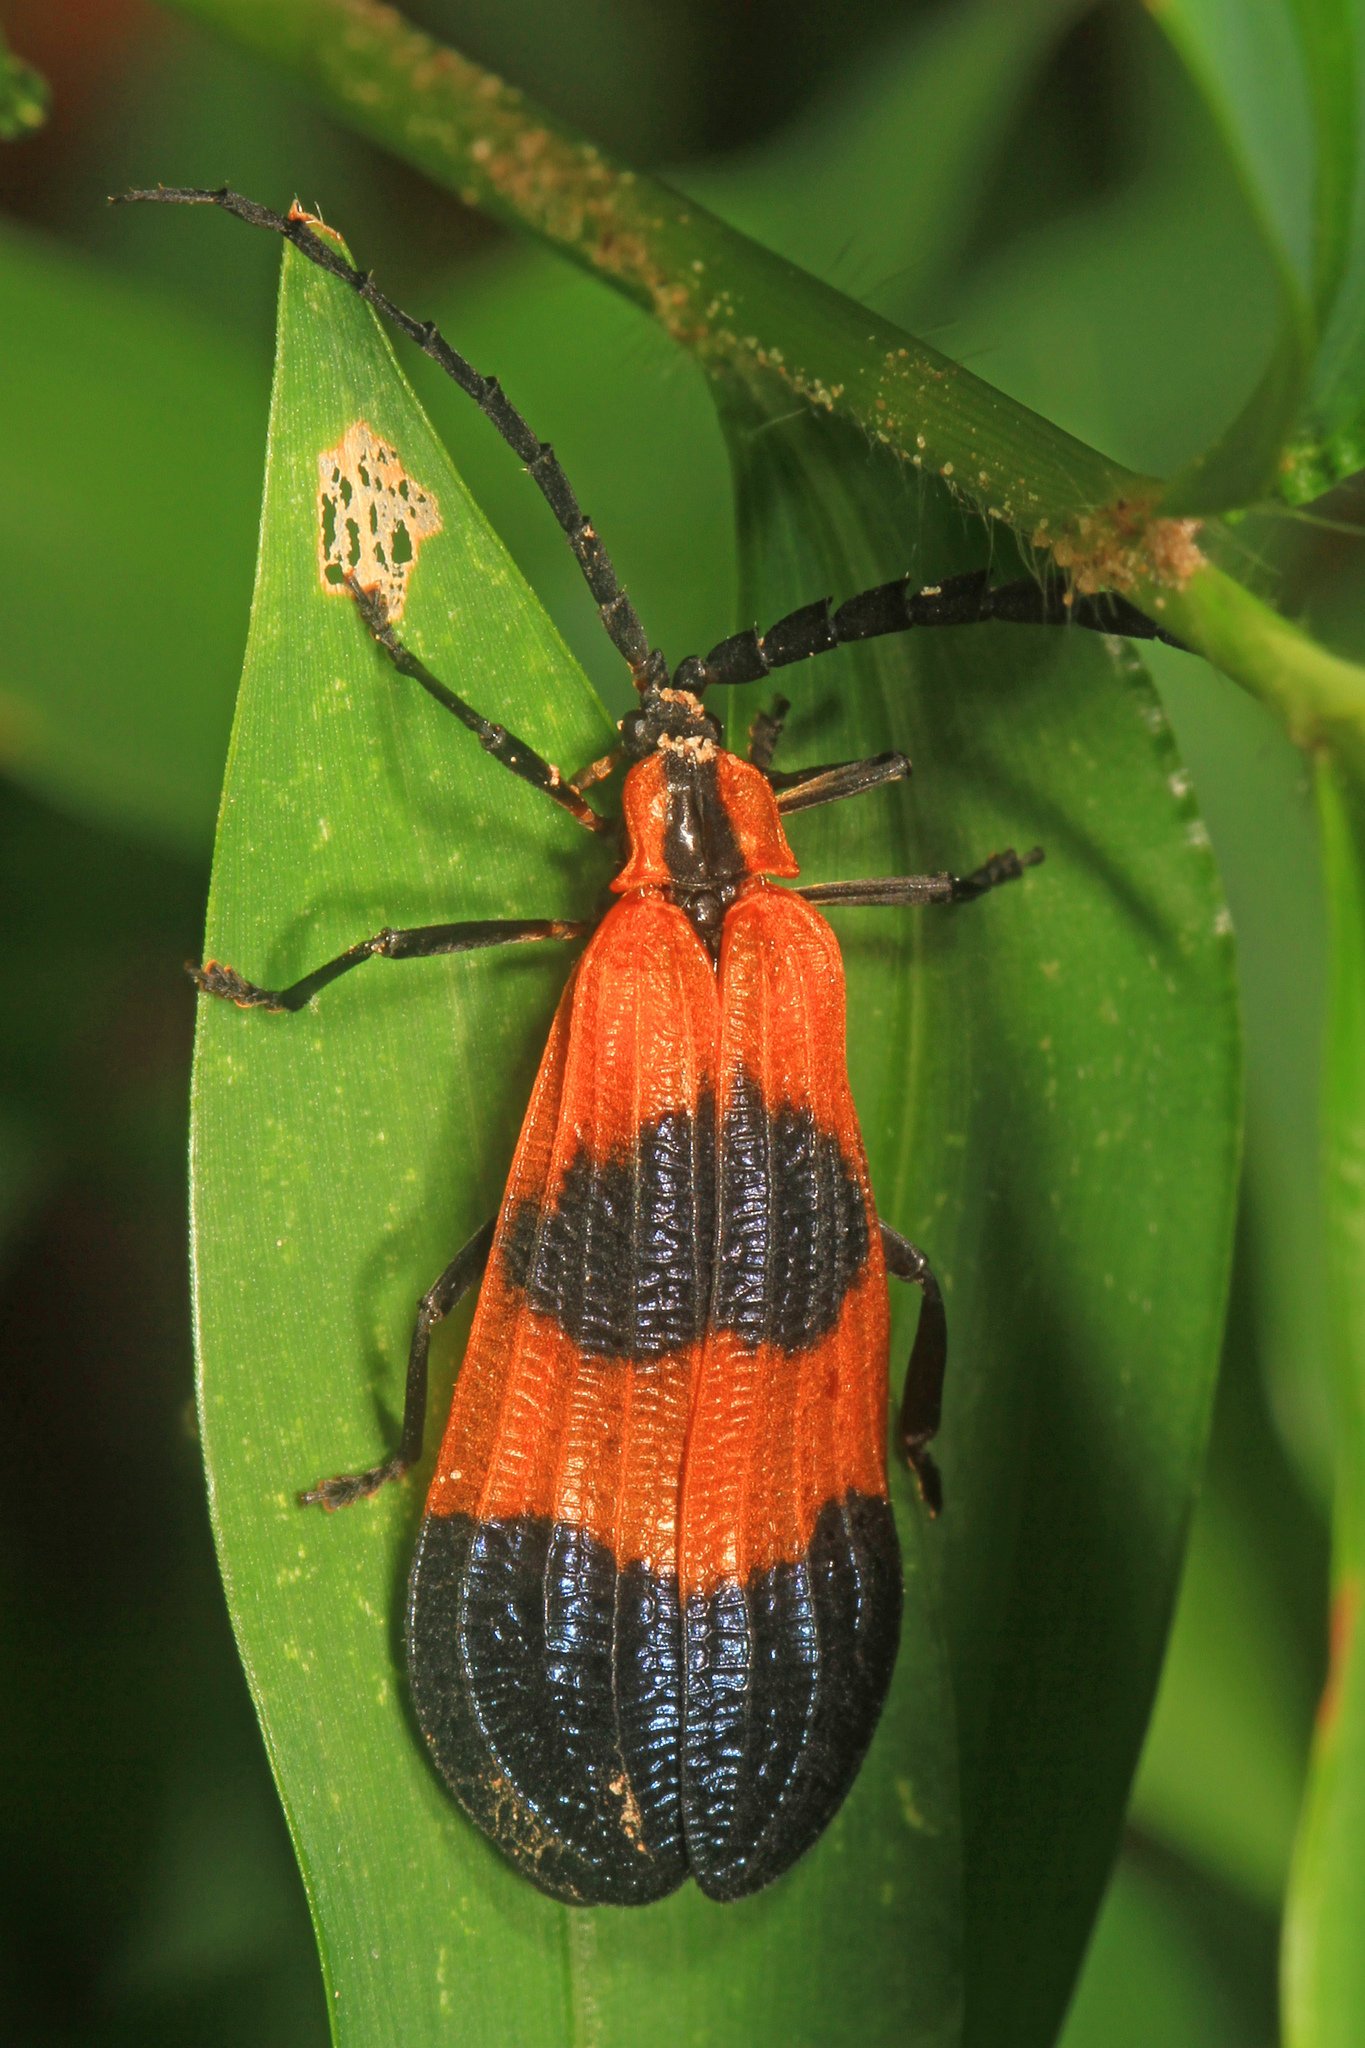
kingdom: Animalia
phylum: Arthropoda
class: Insecta
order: Coleoptera
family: Lycidae
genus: Calopteron
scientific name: Calopteron terminale
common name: End band net-winged beetle
